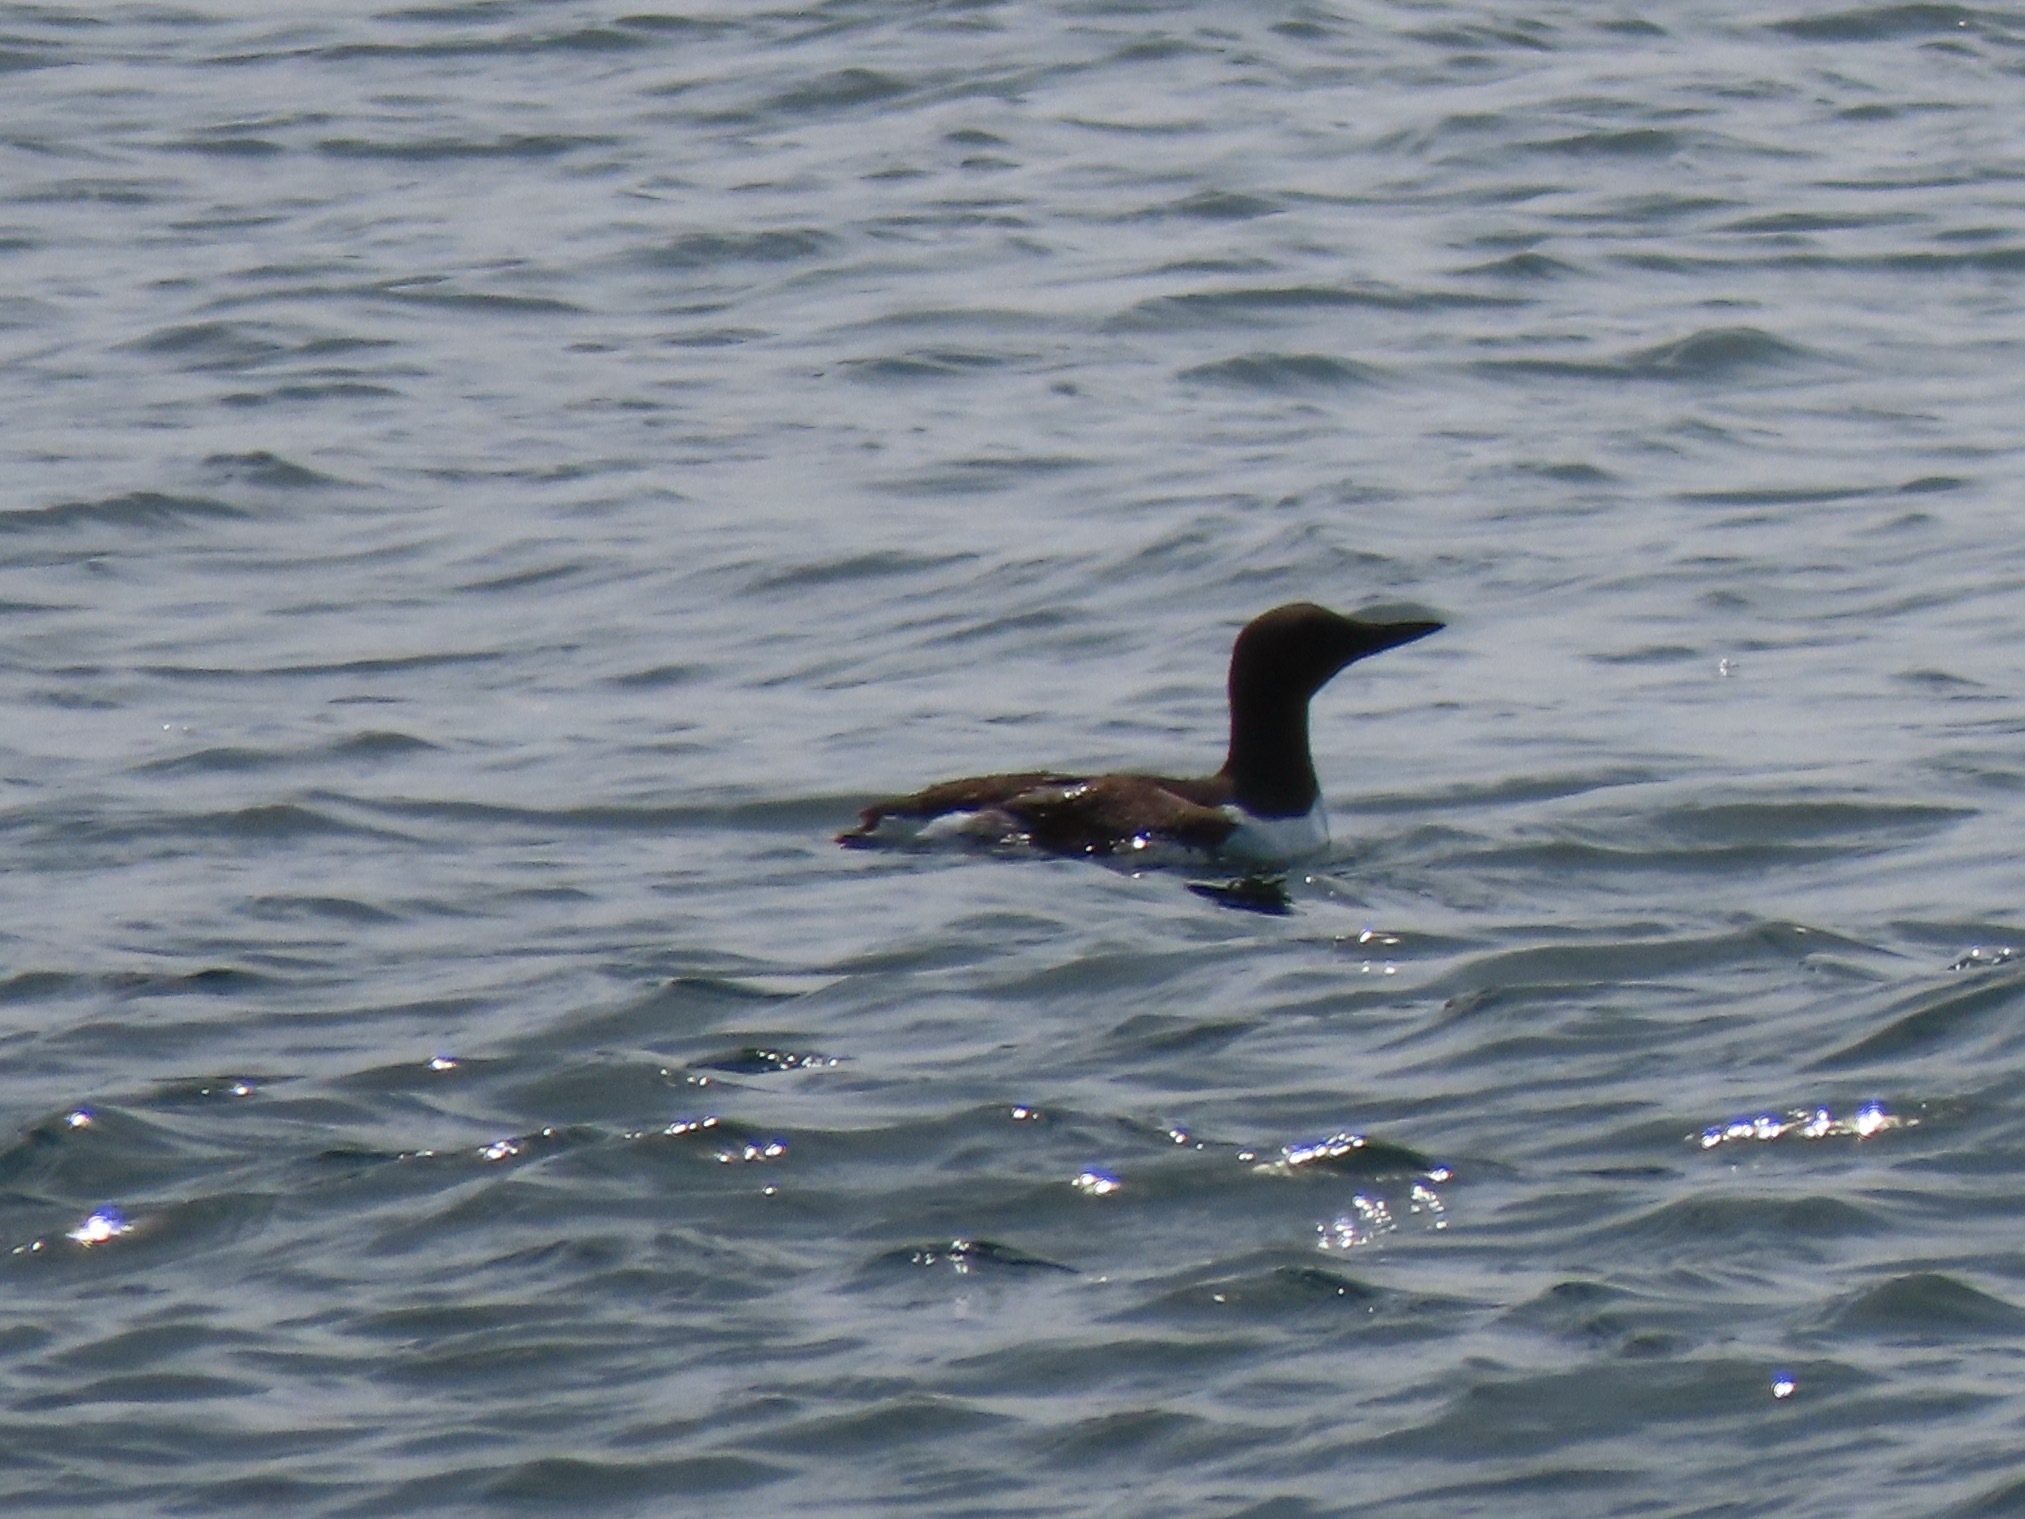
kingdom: Animalia
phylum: Chordata
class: Aves
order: Charadriiformes
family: Alcidae
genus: Uria
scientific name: Uria aalge
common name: Common murre
